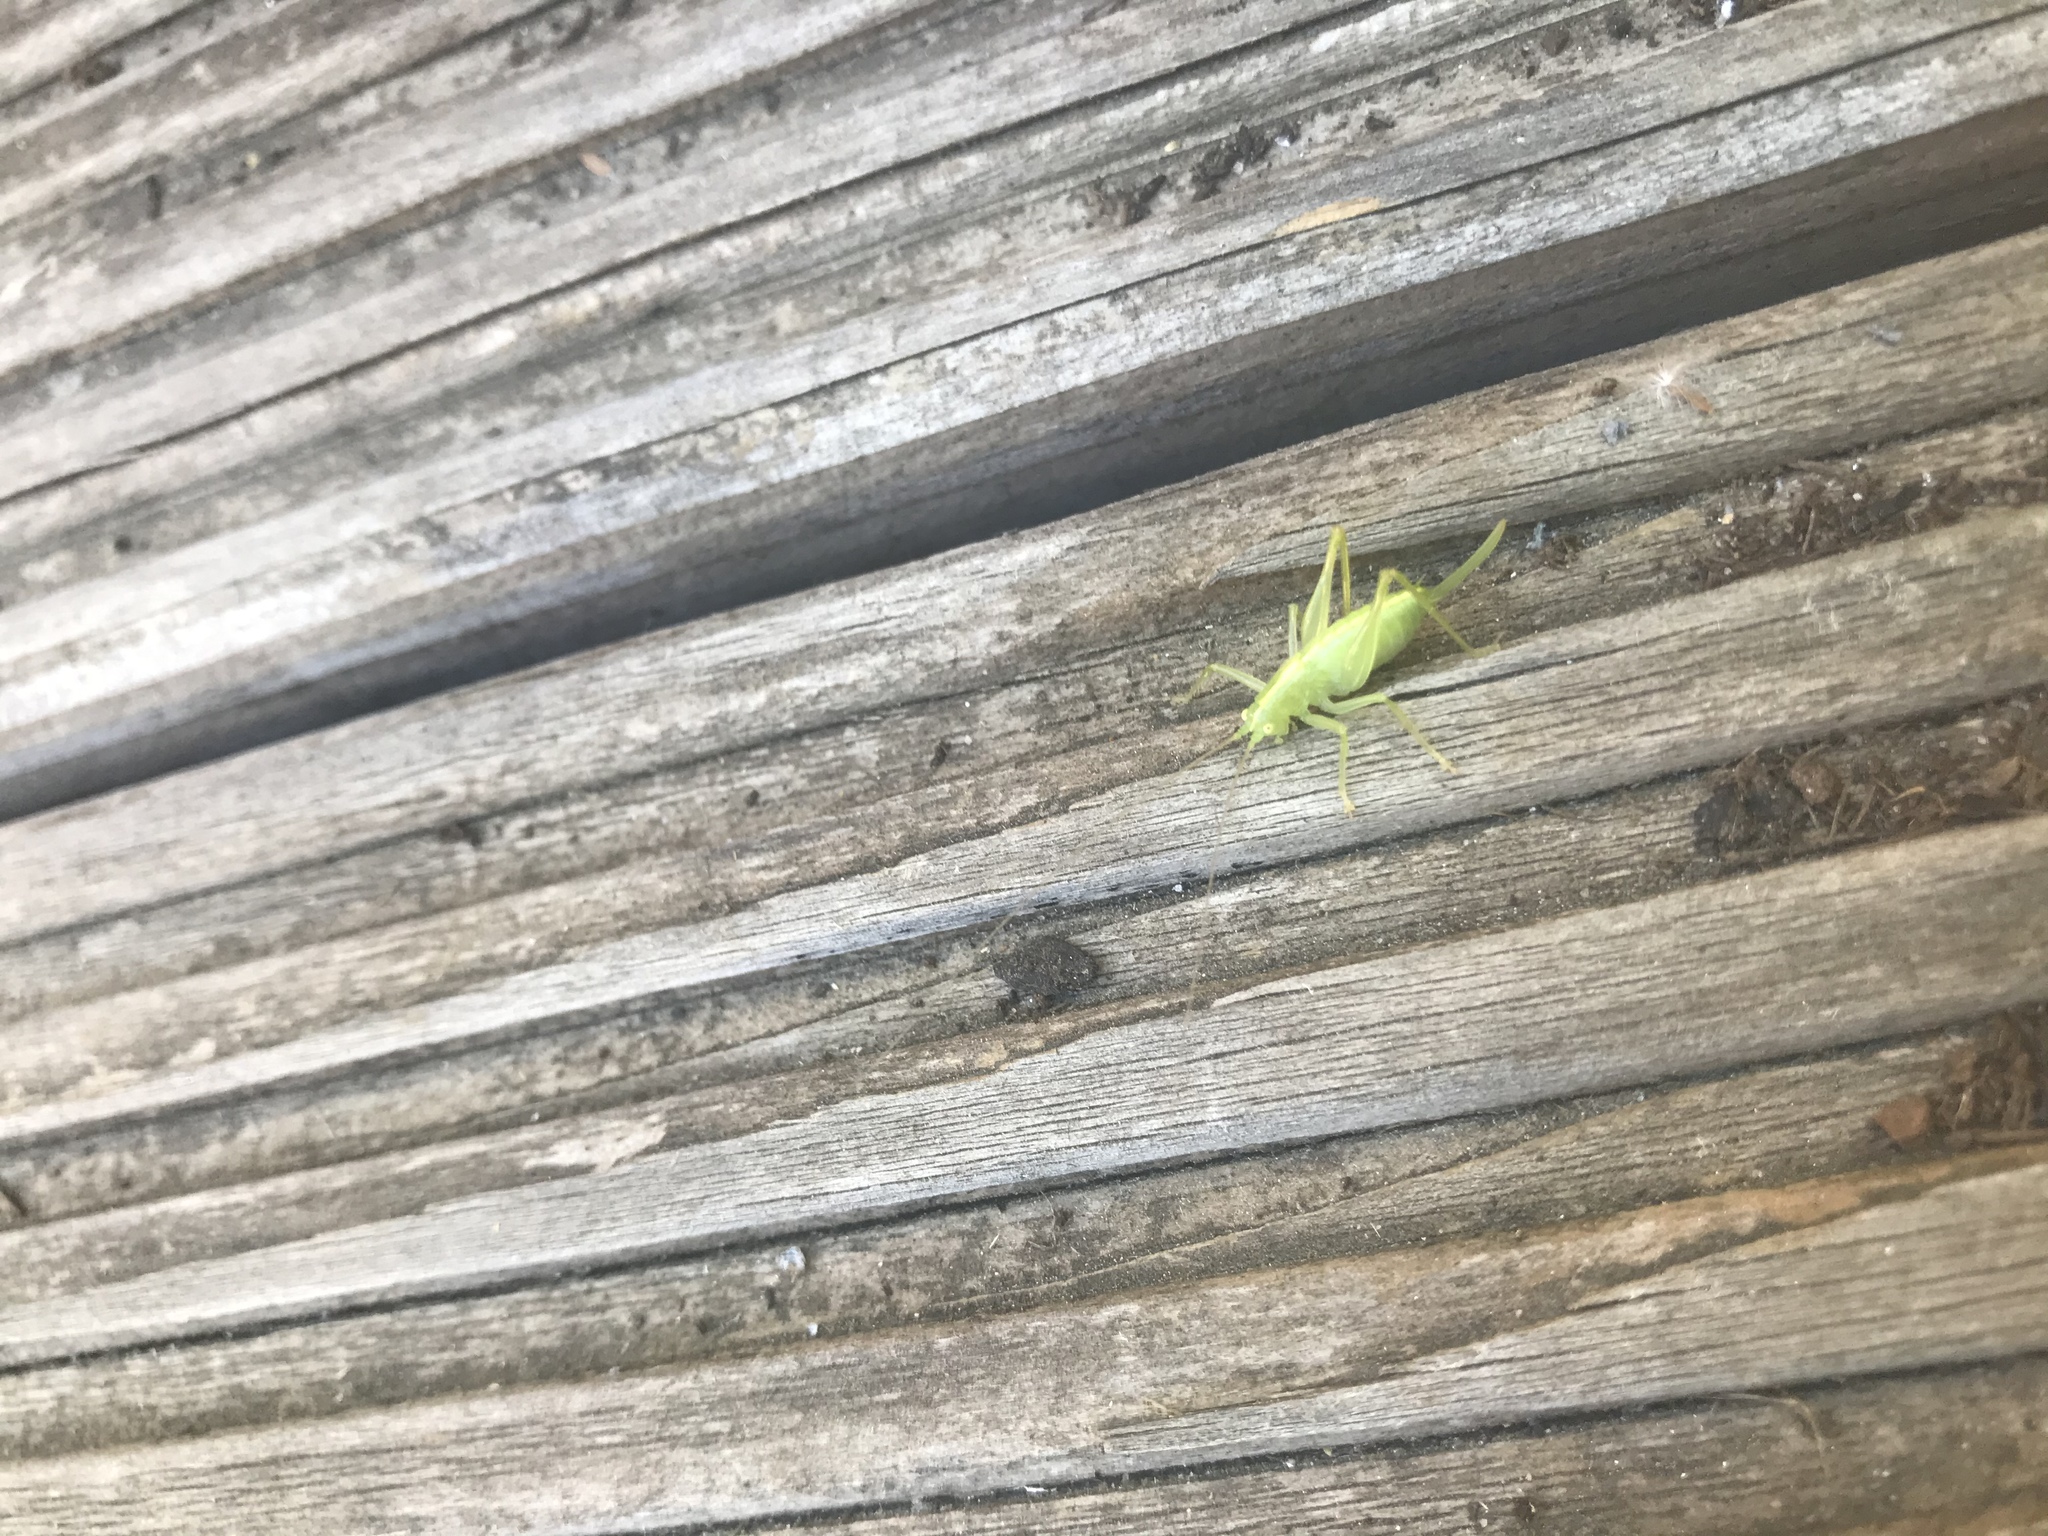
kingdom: Animalia
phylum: Arthropoda
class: Insecta
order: Orthoptera
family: Tettigoniidae
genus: Meconema
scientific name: Meconema meridionale
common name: Southern oak bush-cricket
